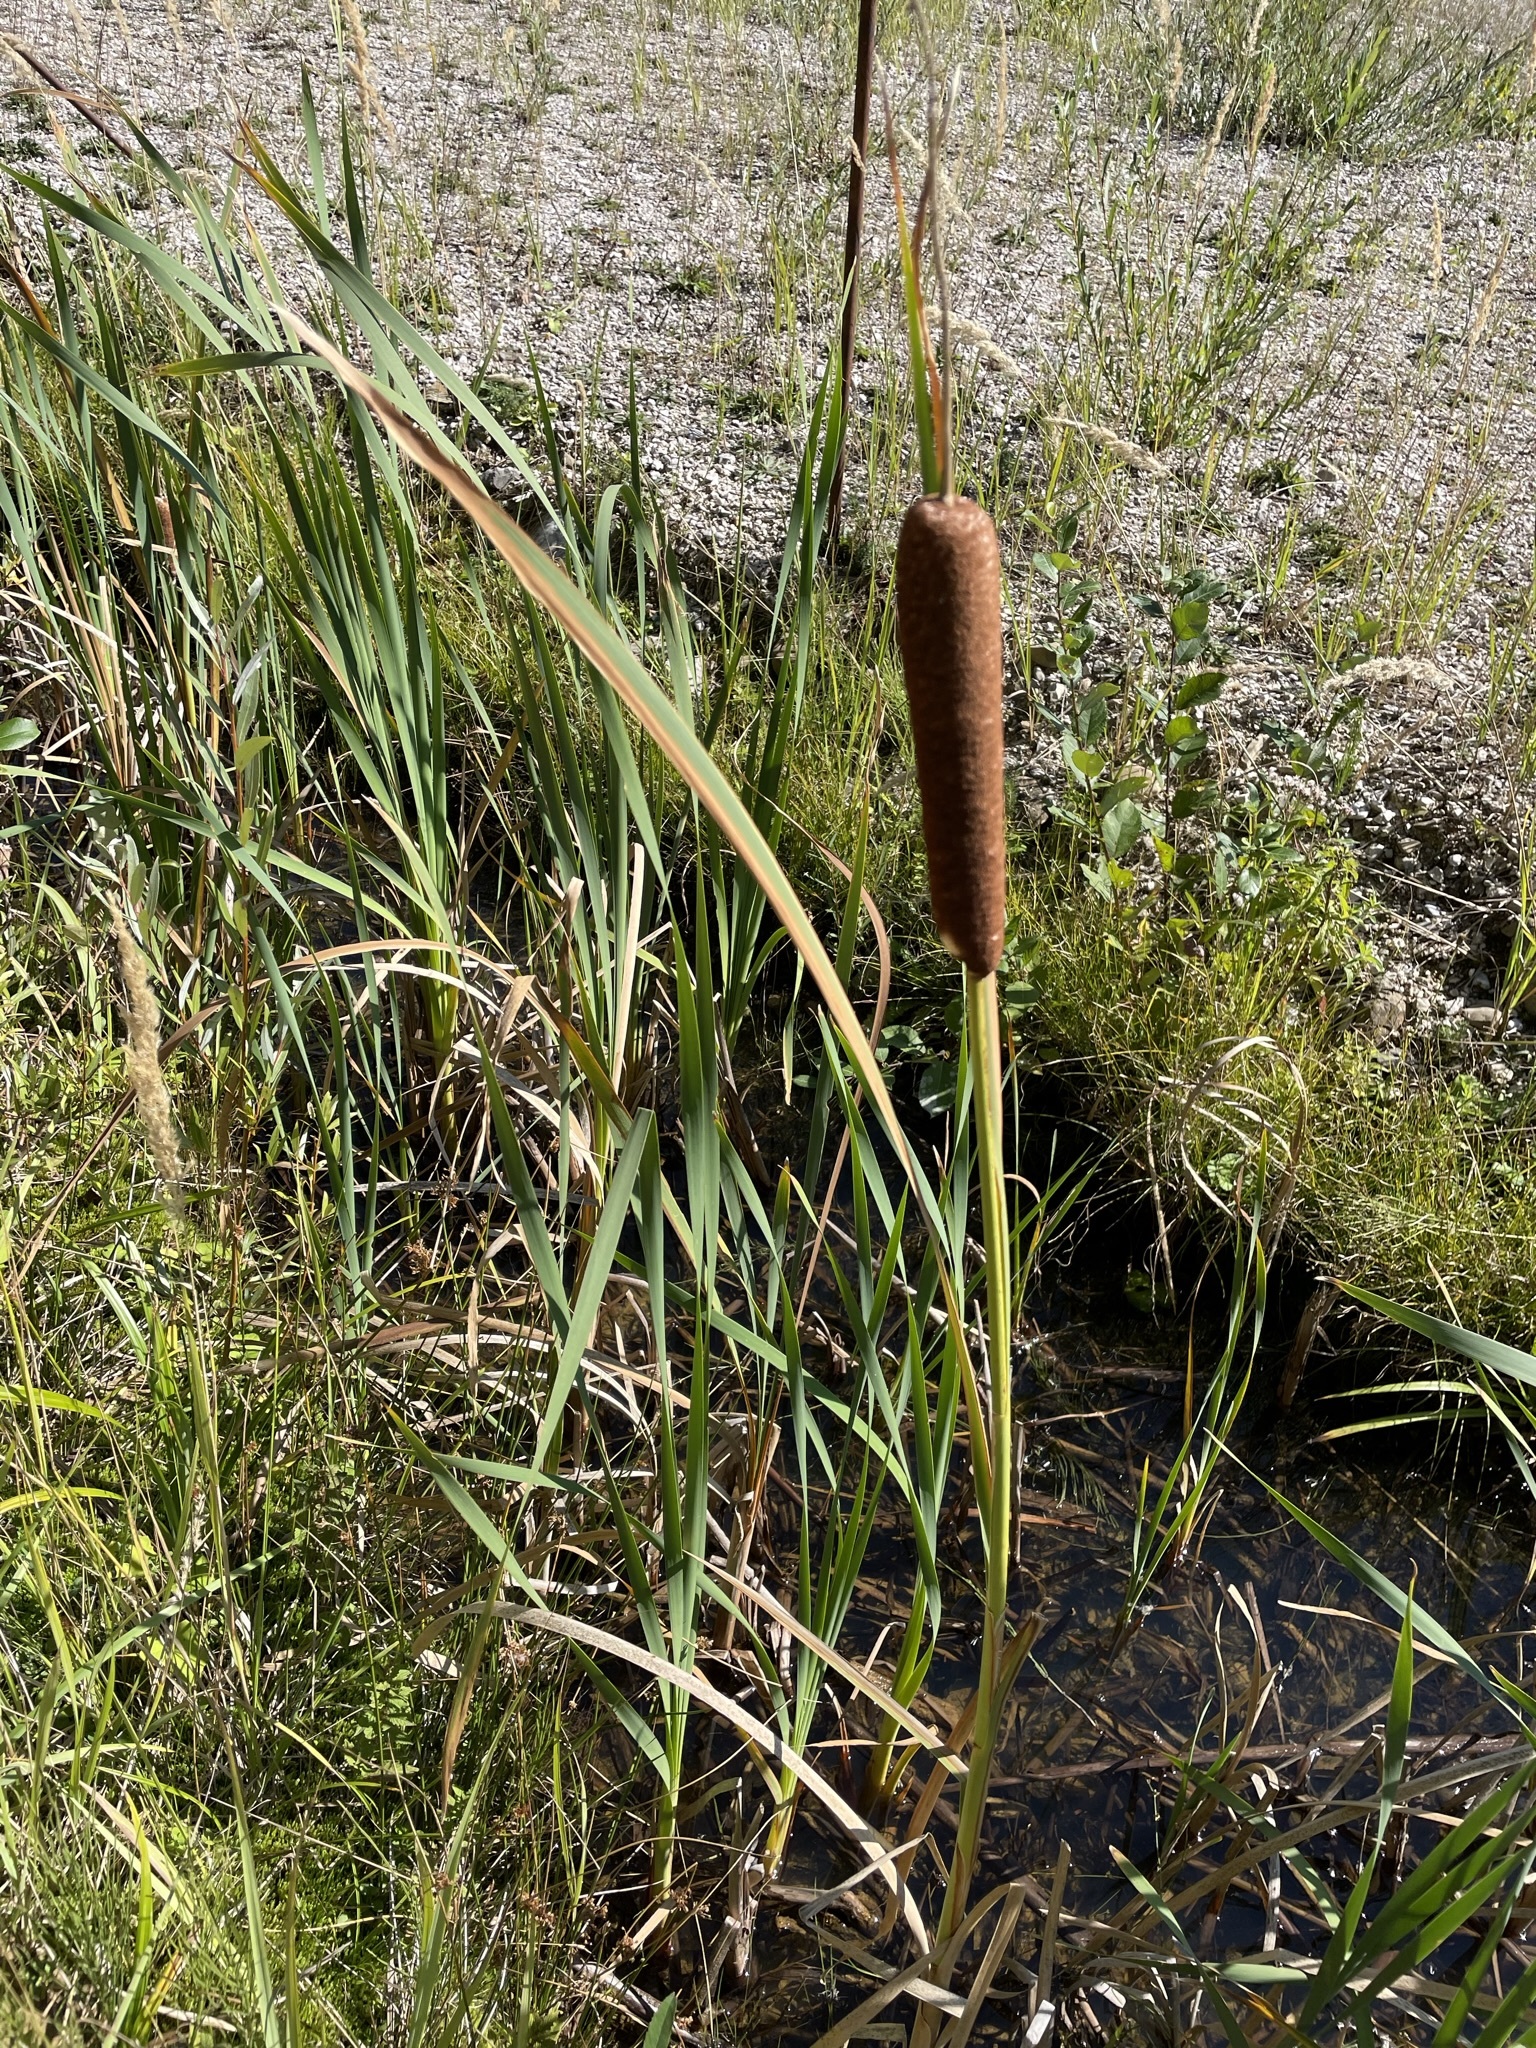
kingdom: Plantae
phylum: Tracheophyta
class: Liliopsida
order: Poales
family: Typhaceae
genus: Typha
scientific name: Typha latifolia
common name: Broadleaf cattail
